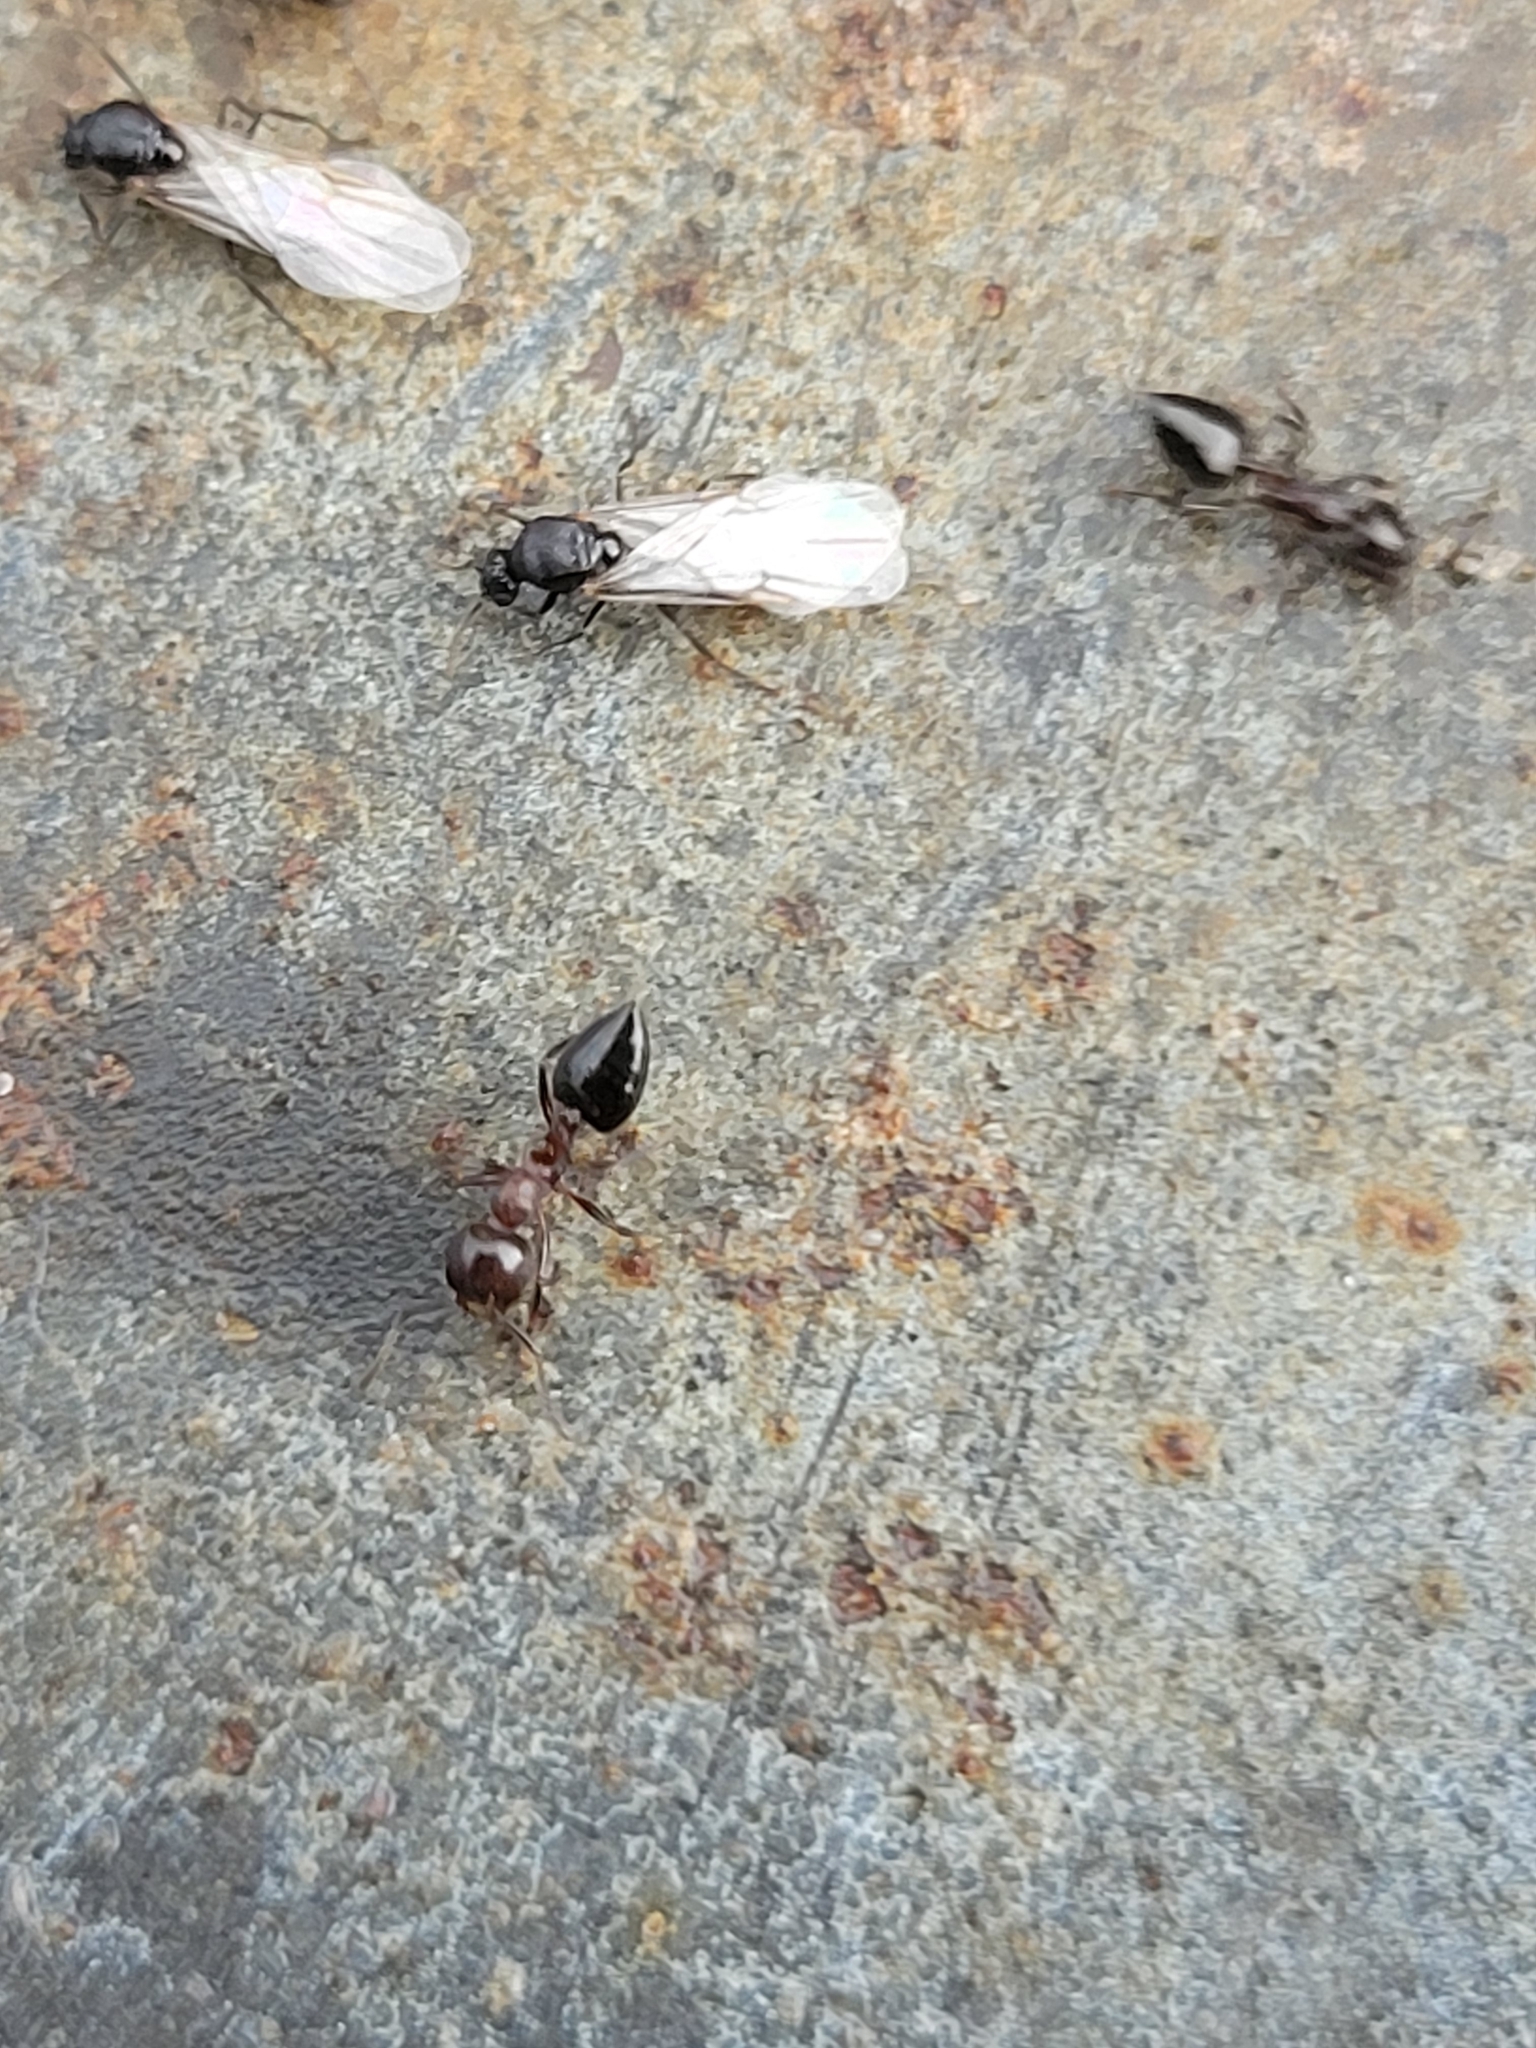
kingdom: Animalia
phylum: Arthropoda
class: Insecta
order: Hymenoptera
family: Formicidae
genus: Crematogaster
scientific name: Crematogaster cerasi
